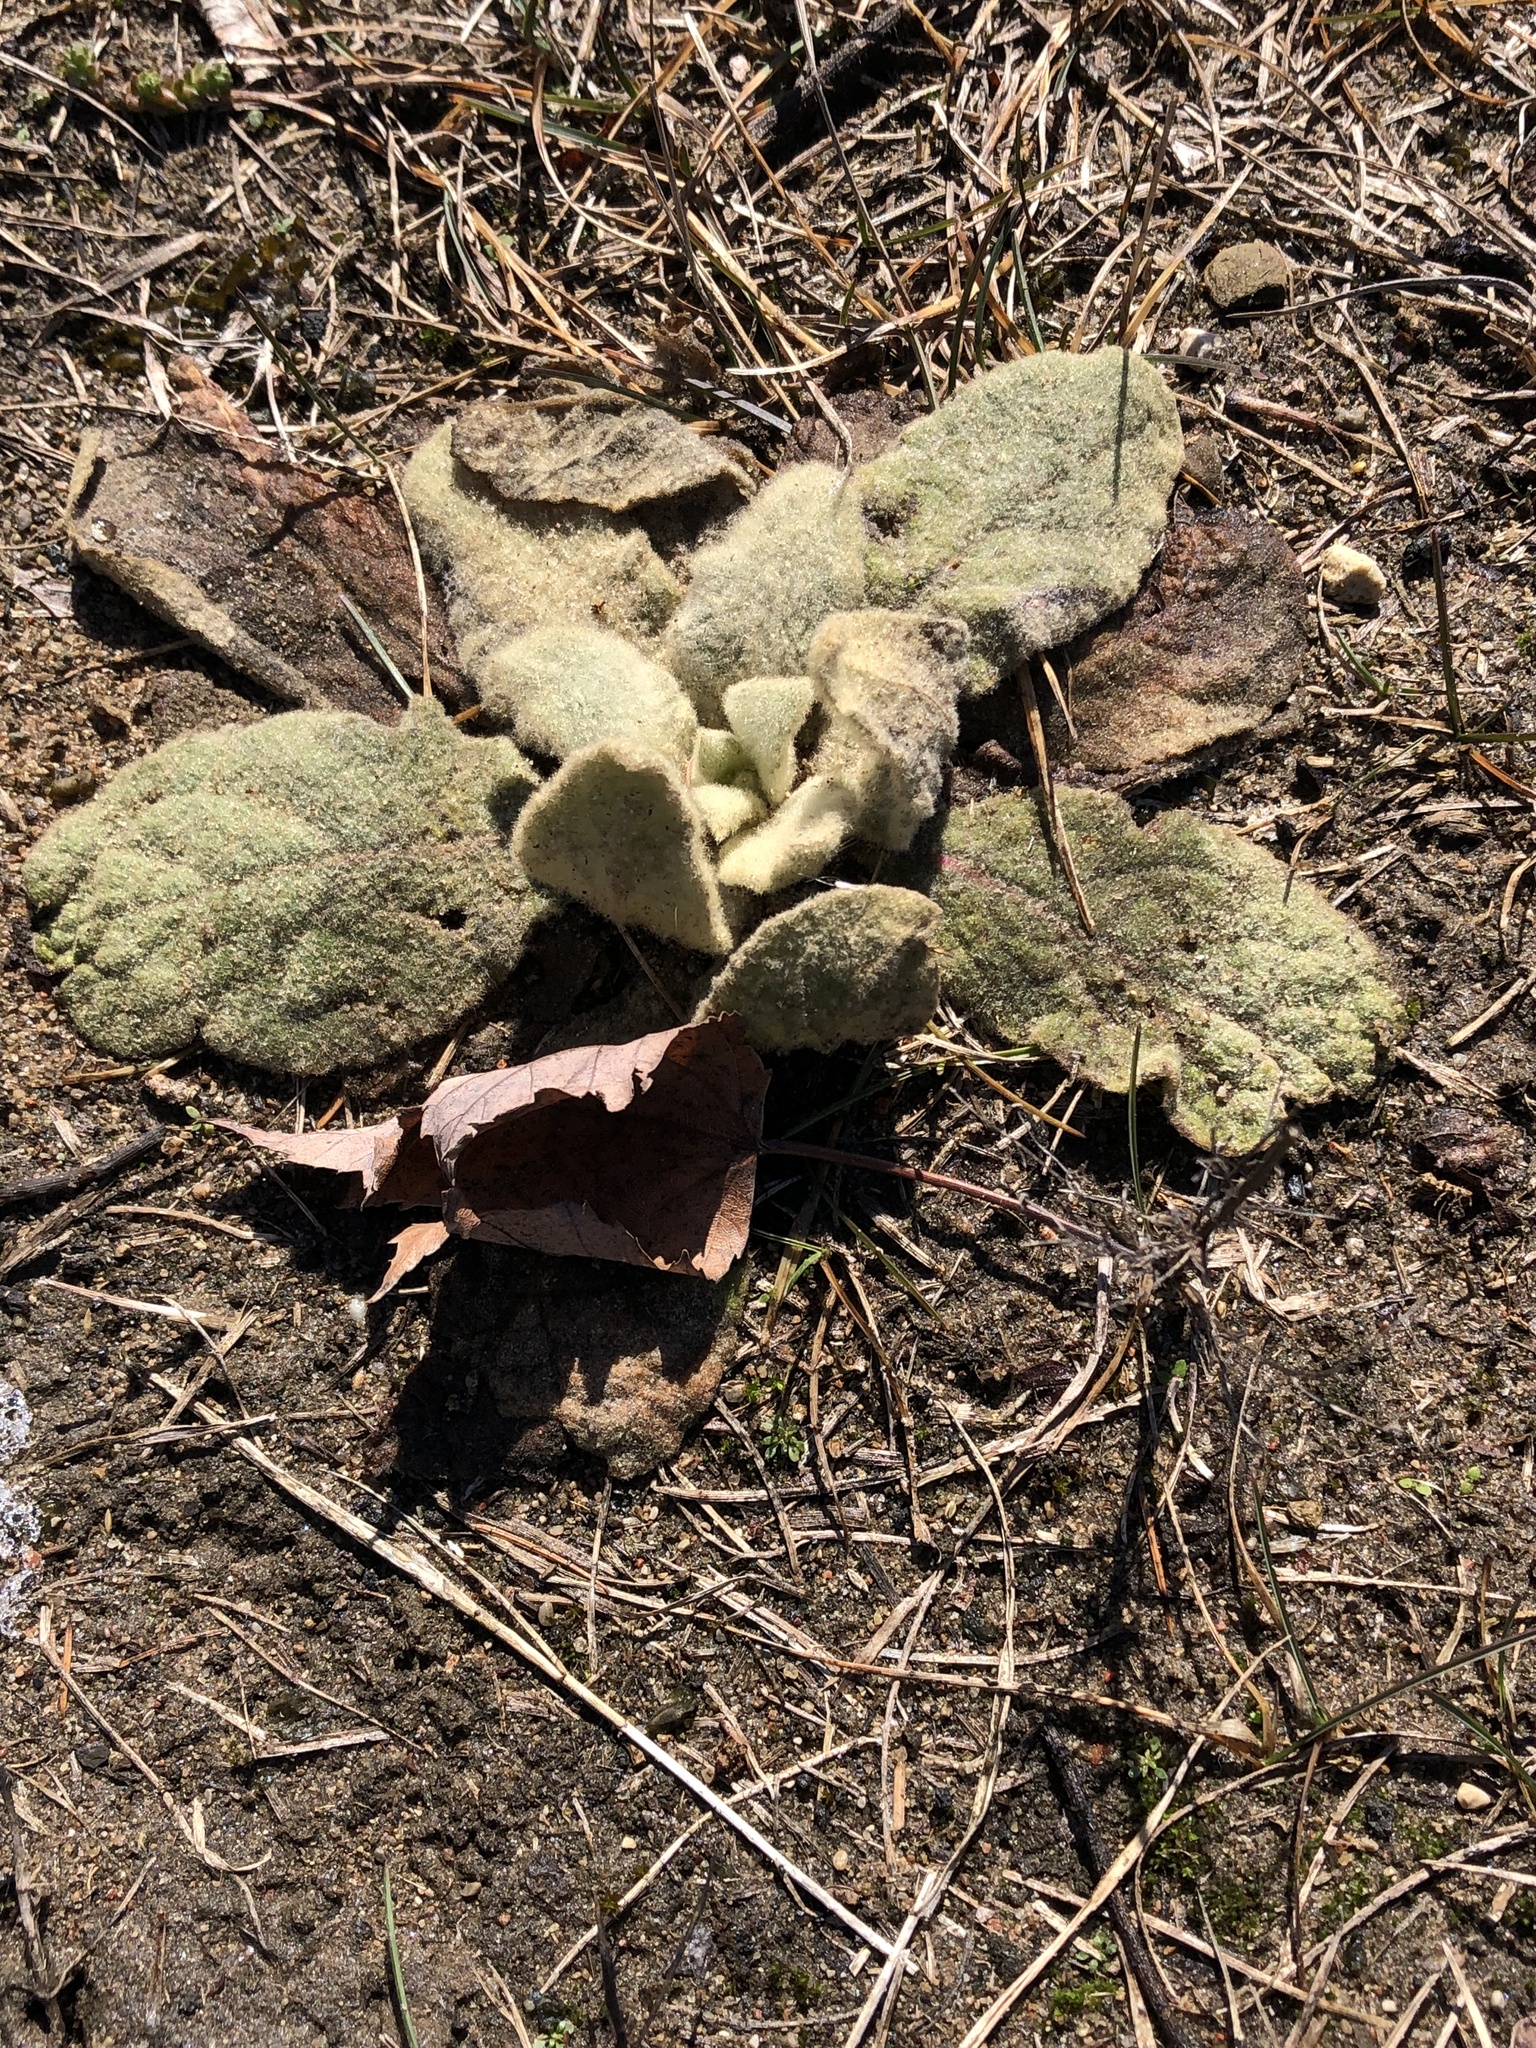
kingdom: Plantae
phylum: Tracheophyta
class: Magnoliopsida
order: Lamiales
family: Scrophulariaceae
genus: Verbascum
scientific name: Verbascum thapsus
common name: Common mullein
